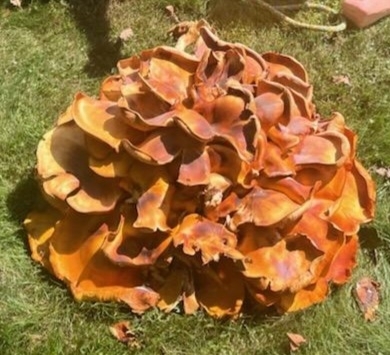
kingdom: Fungi
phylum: Basidiomycota
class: Agaricomycetes
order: Agaricales
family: Omphalotaceae
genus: Omphalotus
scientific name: Omphalotus illudens
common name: Jack o lantern
